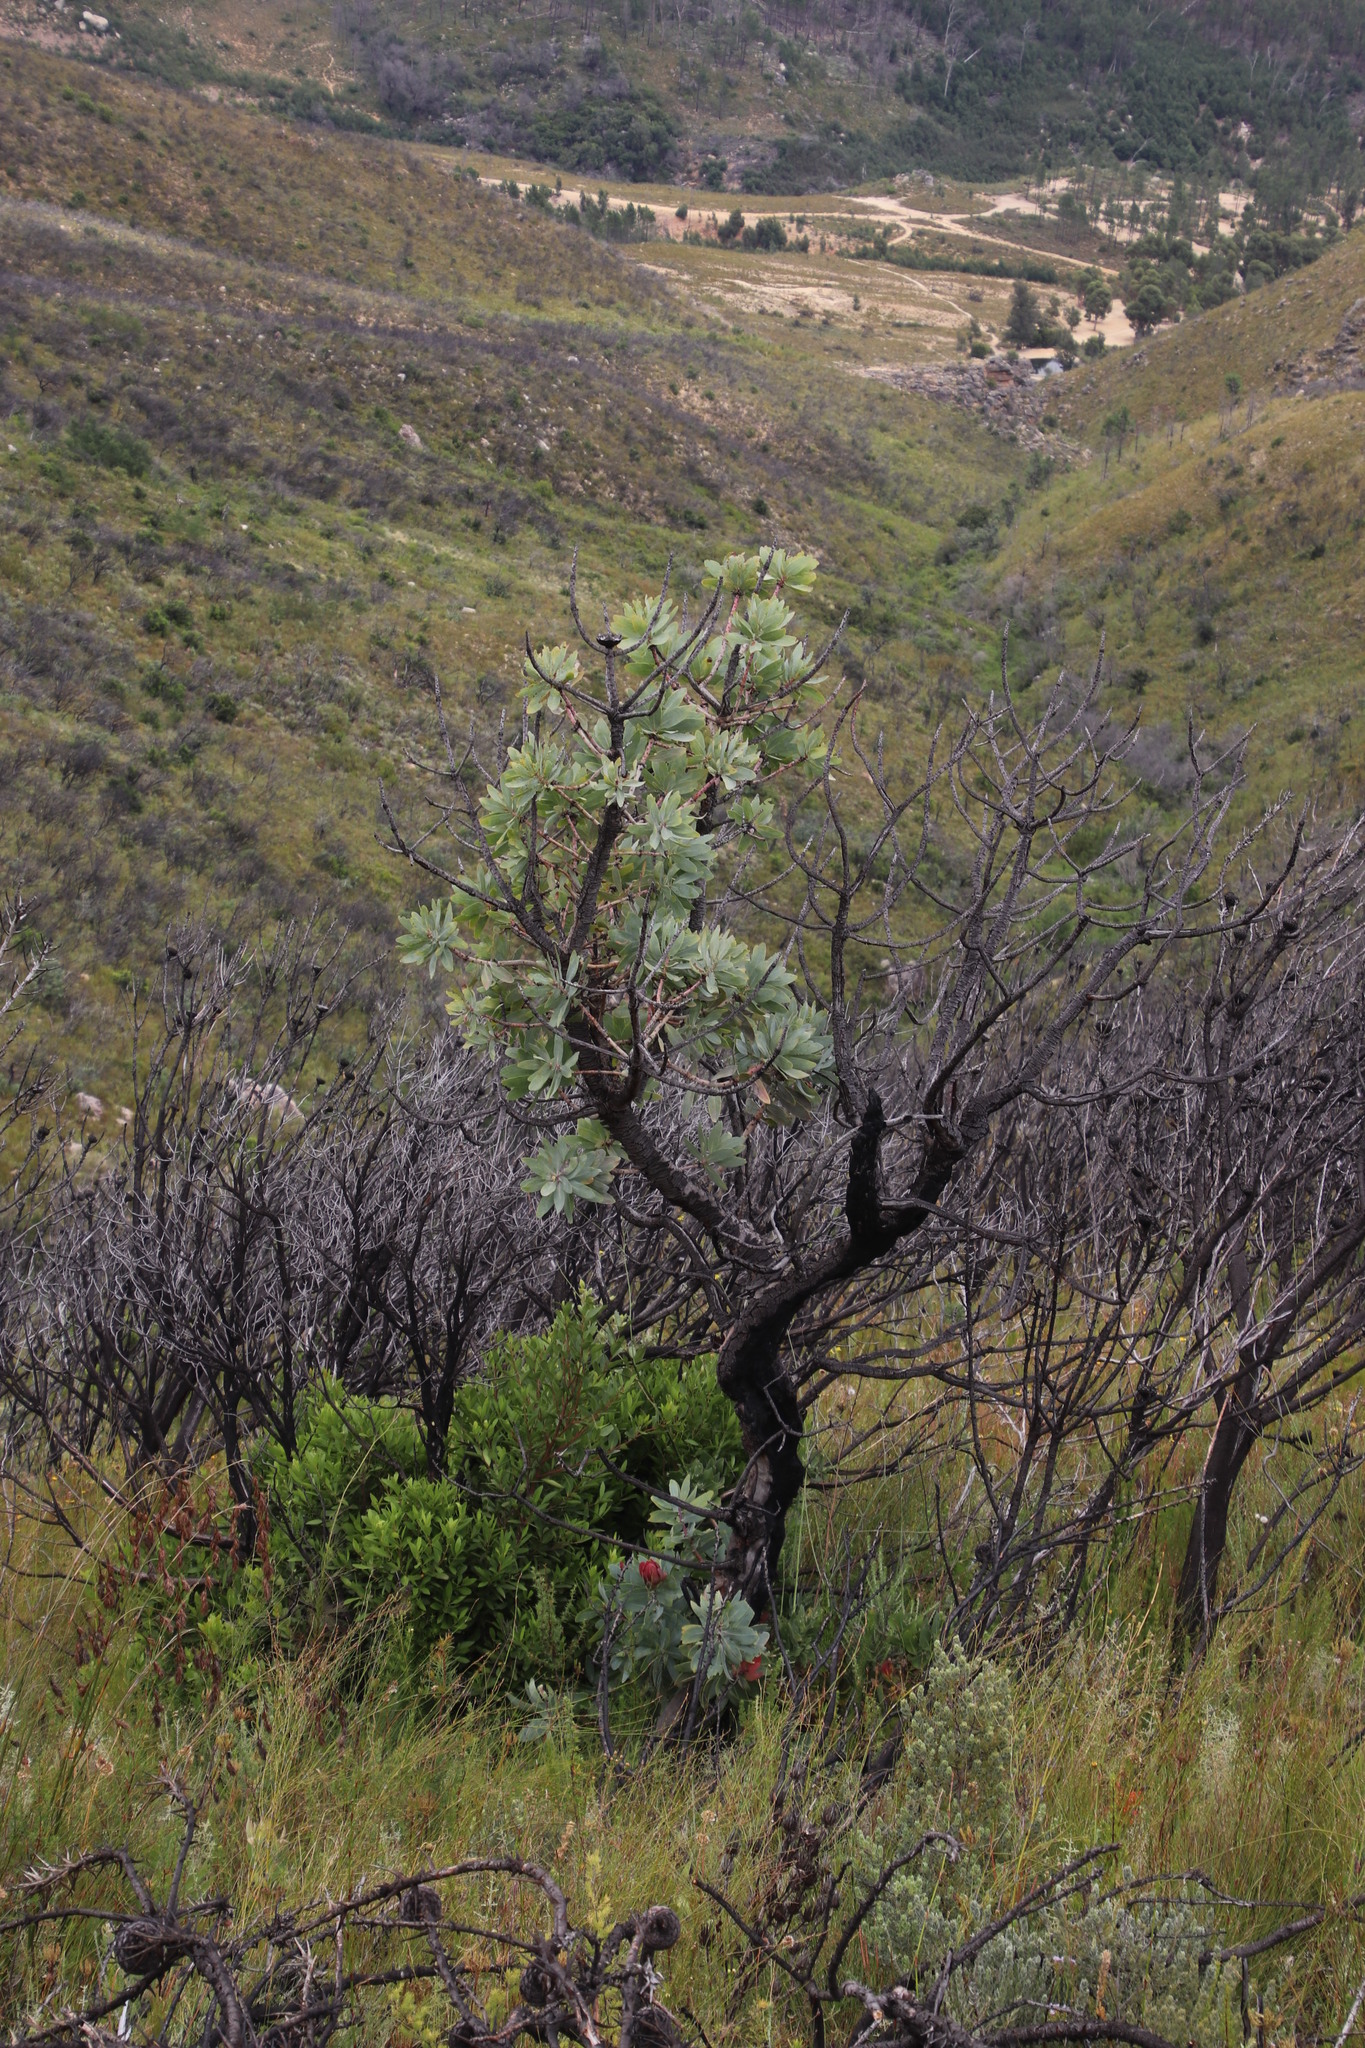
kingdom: Plantae
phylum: Tracheophyta
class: Magnoliopsida
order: Proteales
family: Proteaceae
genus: Protea
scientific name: Protea nitida
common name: Tree protea
